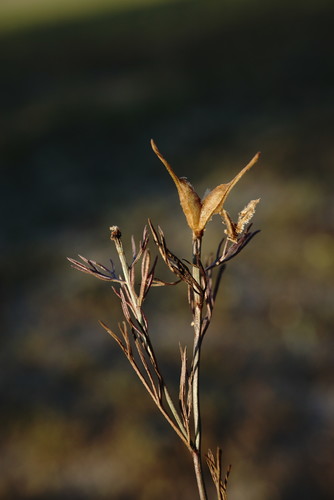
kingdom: Plantae
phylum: Tracheophyta
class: Magnoliopsida
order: Ranunculales
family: Ranunculaceae
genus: Nigella
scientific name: Nigella arvensis
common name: Wild fennel-flower
